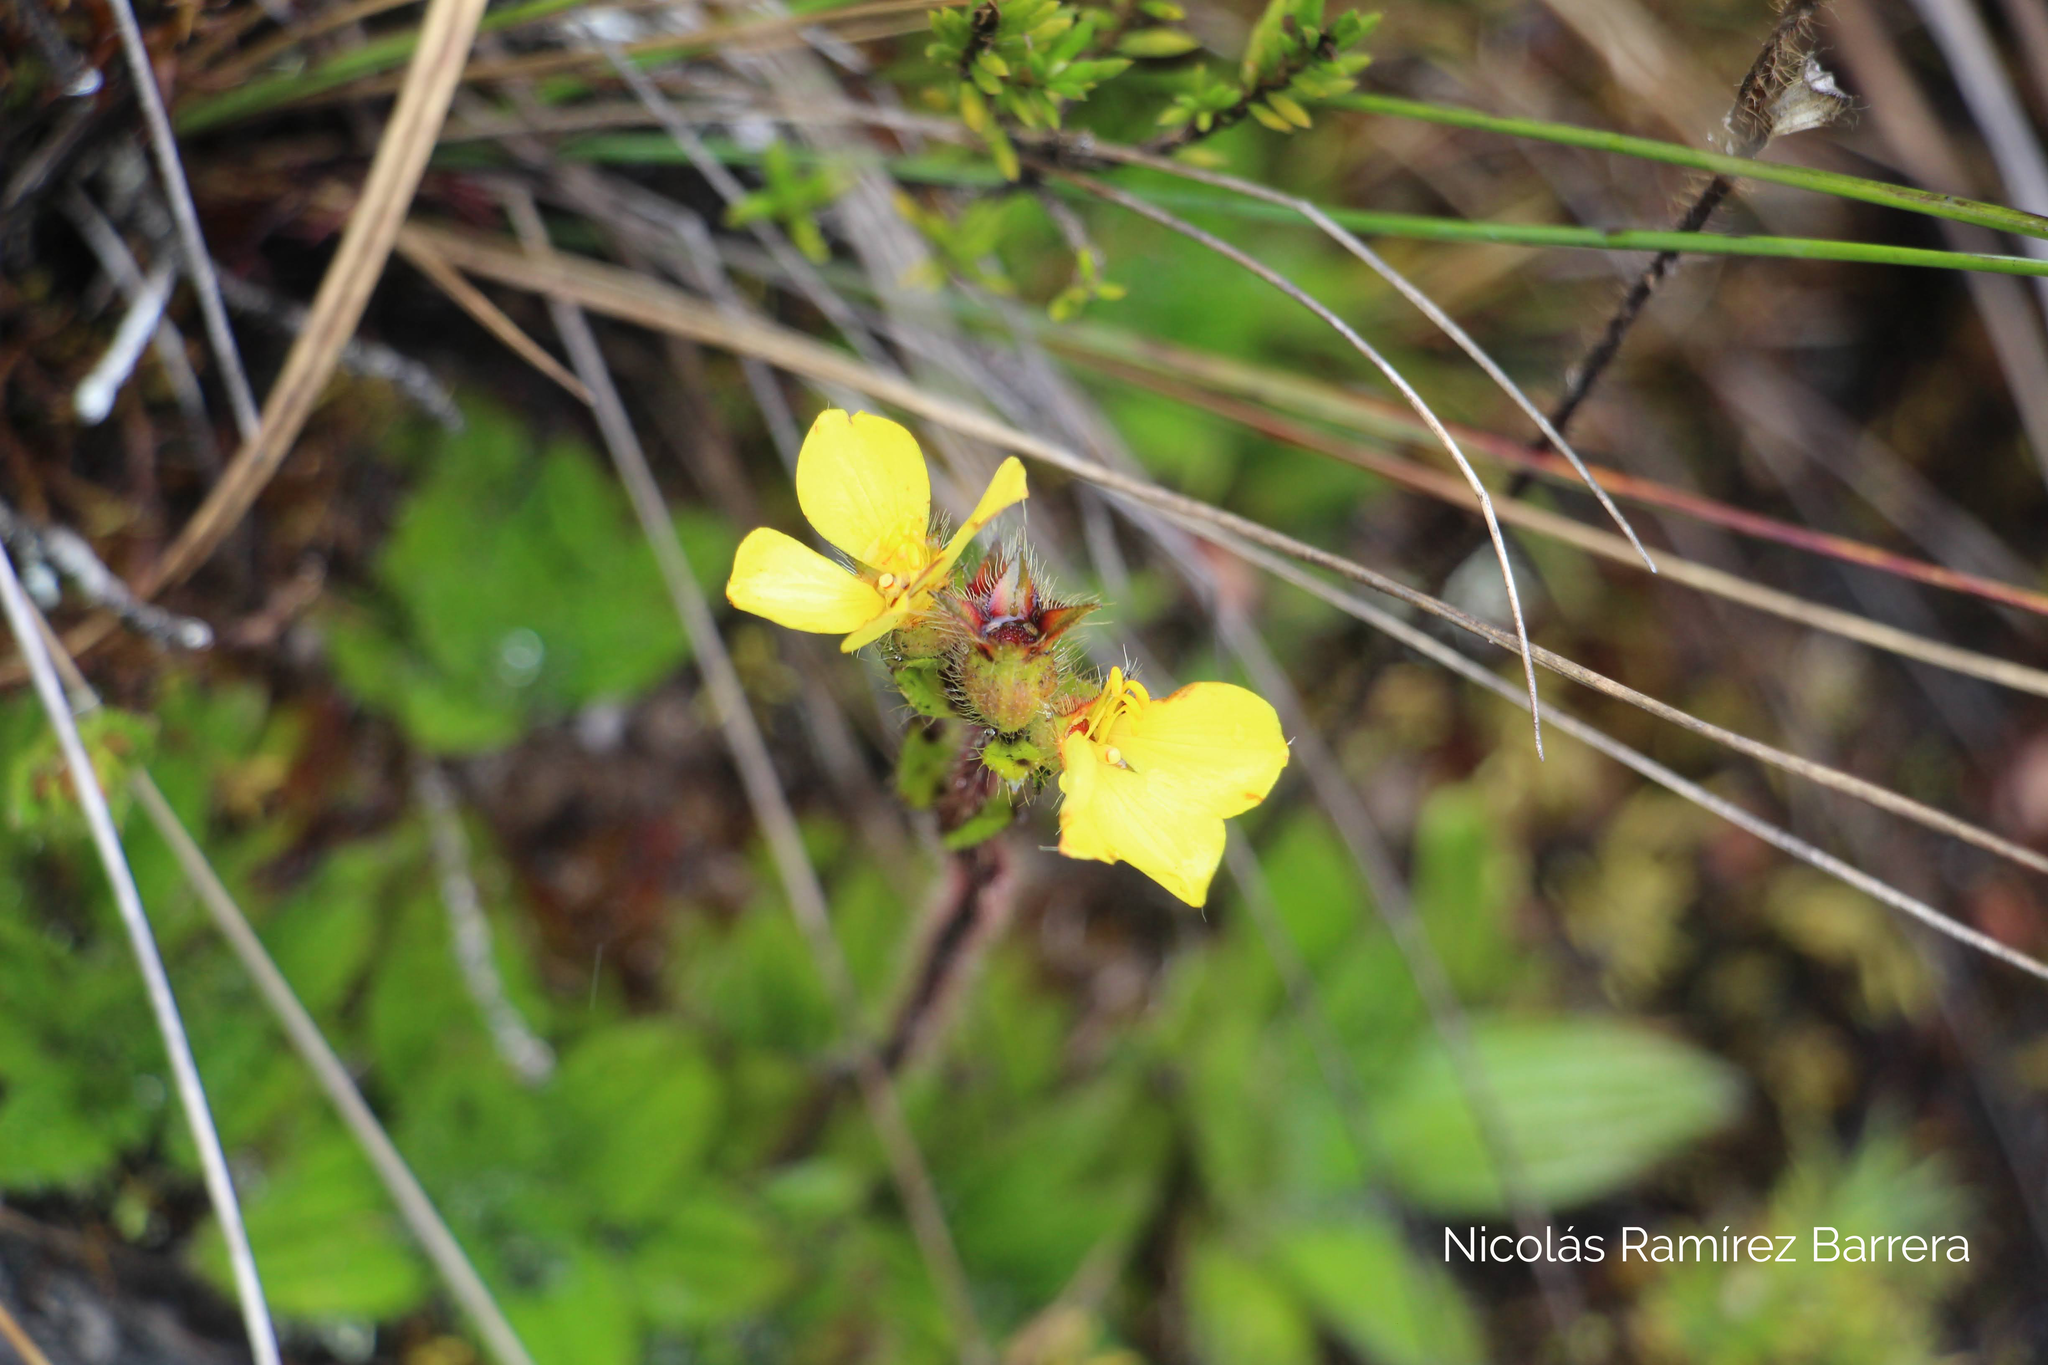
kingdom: Plantae
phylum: Tracheophyta
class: Magnoliopsida
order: Myrtales
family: Melastomataceae
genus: Castratella
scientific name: Castratella piloselloides
